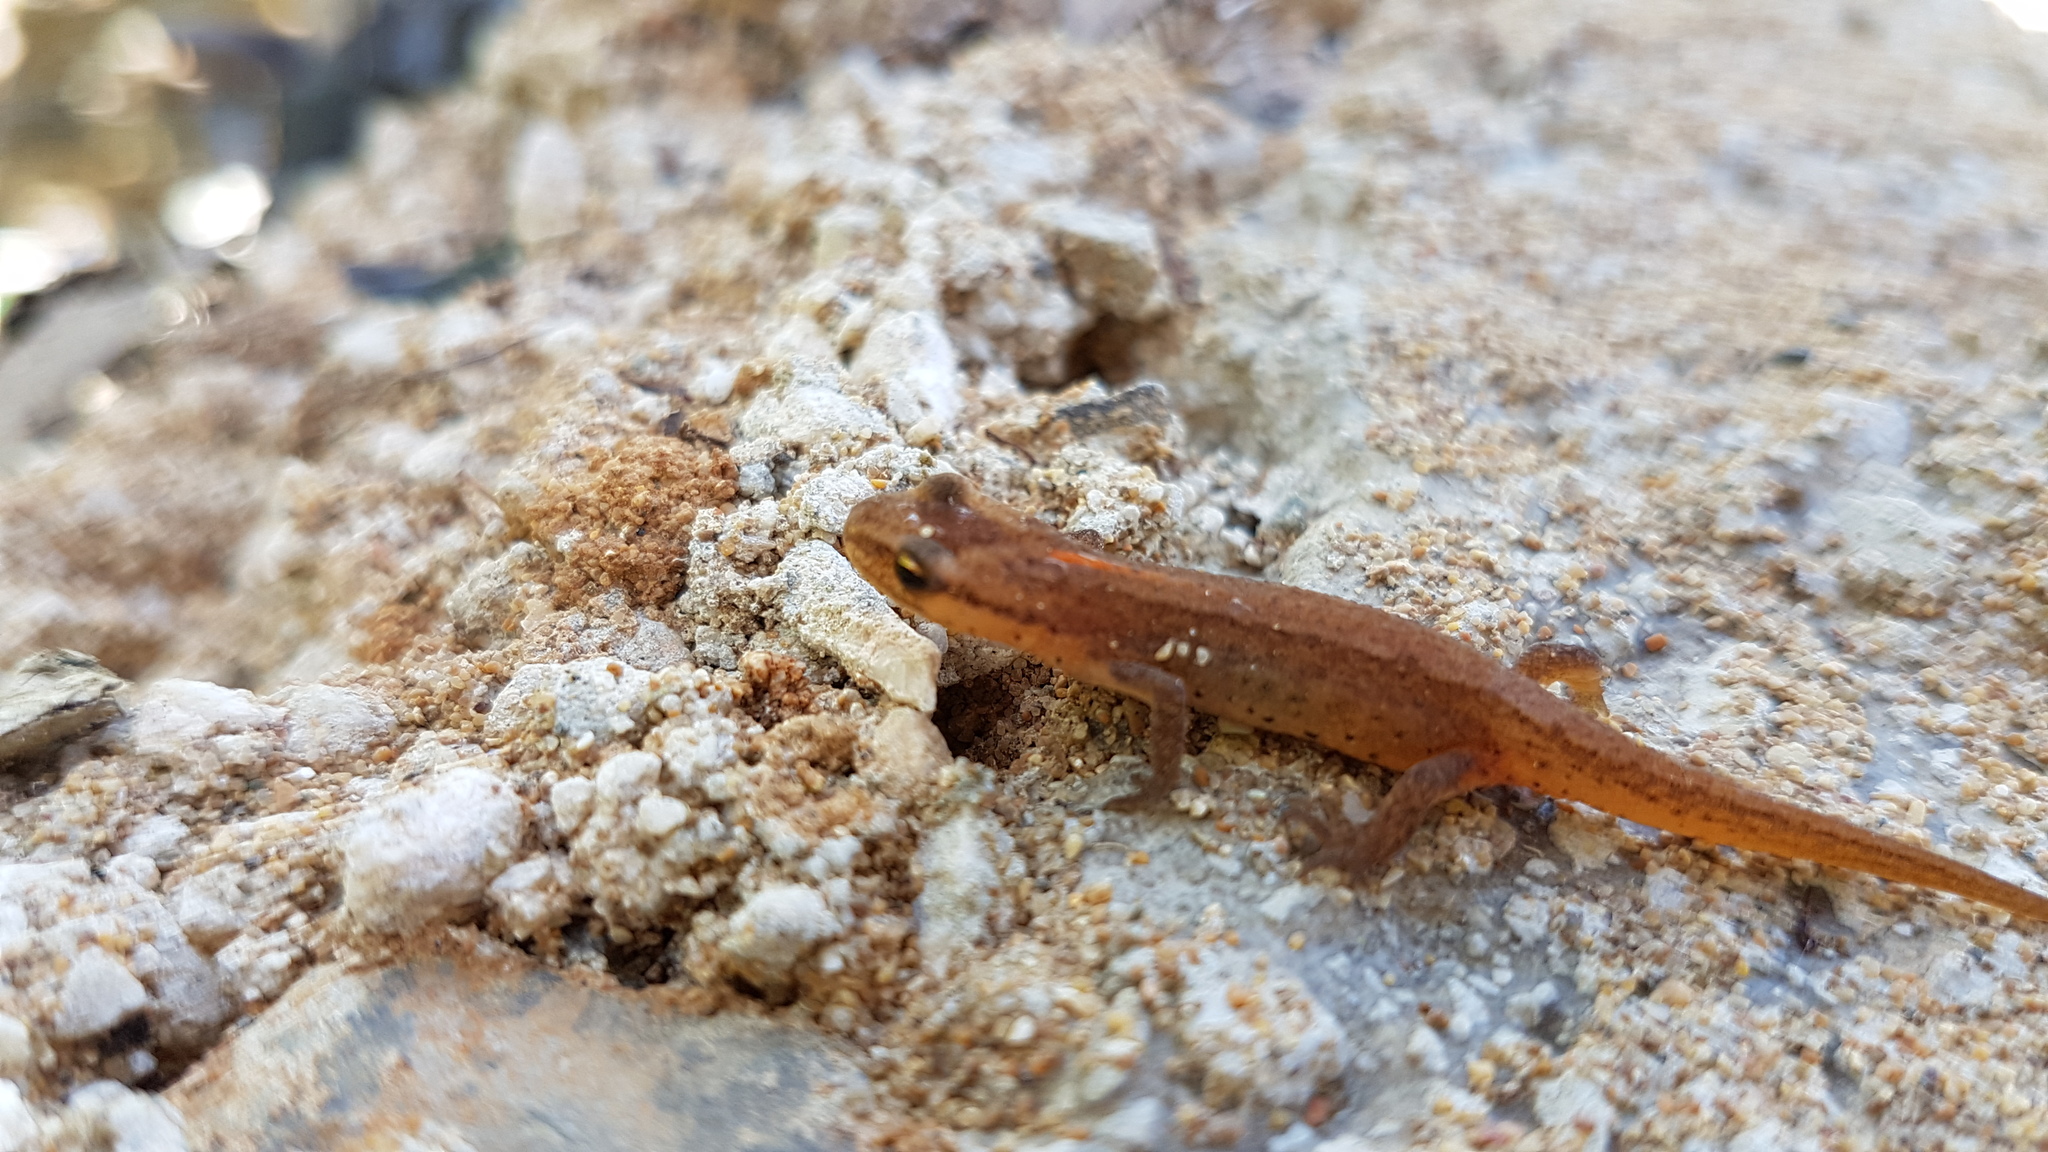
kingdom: Animalia
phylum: Chordata
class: Amphibia
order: Caudata
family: Salamandridae
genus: Lissotriton
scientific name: Lissotriton graecus
